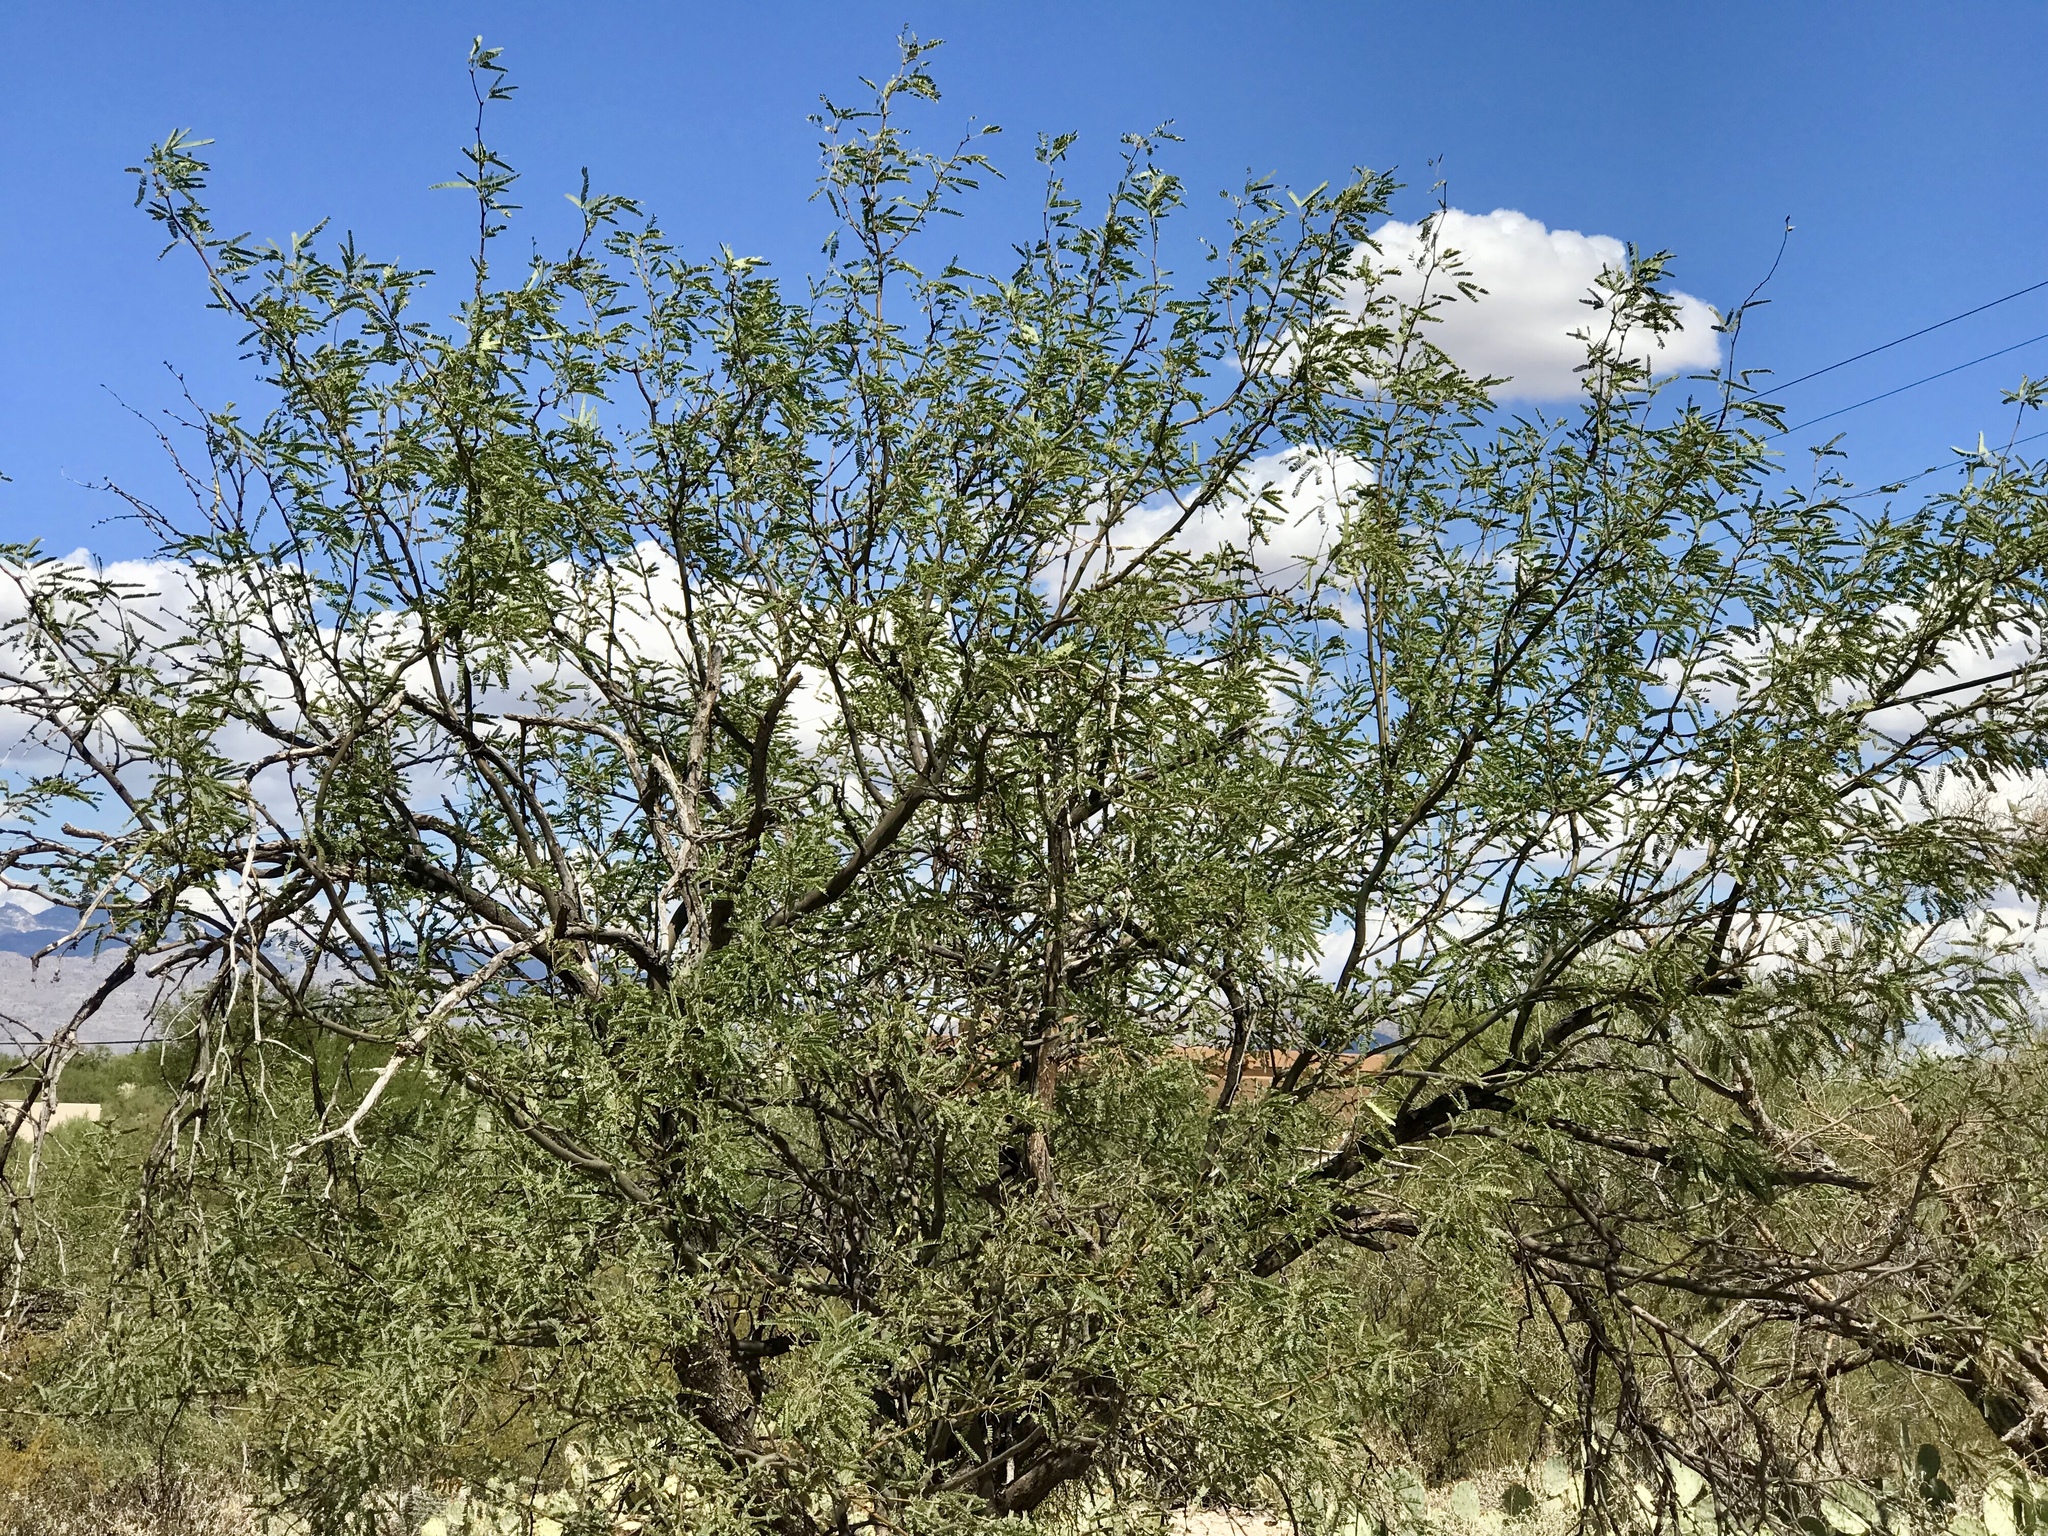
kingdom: Plantae
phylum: Tracheophyta
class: Magnoliopsida
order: Fabales
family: Fabaceae
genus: Prosopis
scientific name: Prosopis velutina
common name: Velvet mesquite
